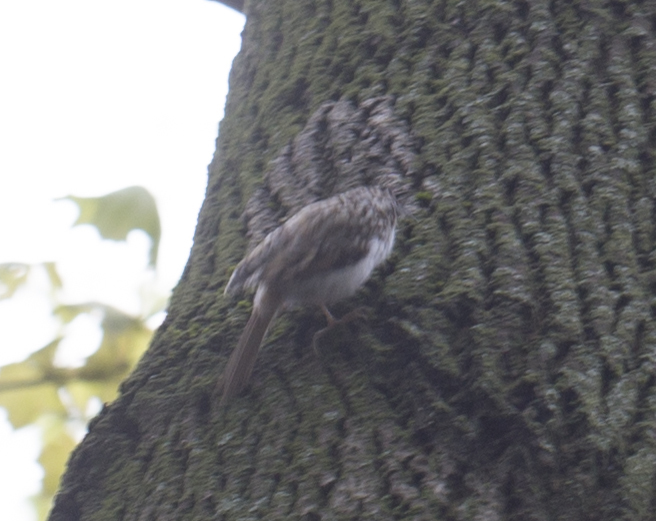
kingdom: Animalia
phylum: Chordata
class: Aves
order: Passeriformes
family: Certhiidae
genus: Certhia
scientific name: Certhia familiaris
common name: Eurasian treecreeper
